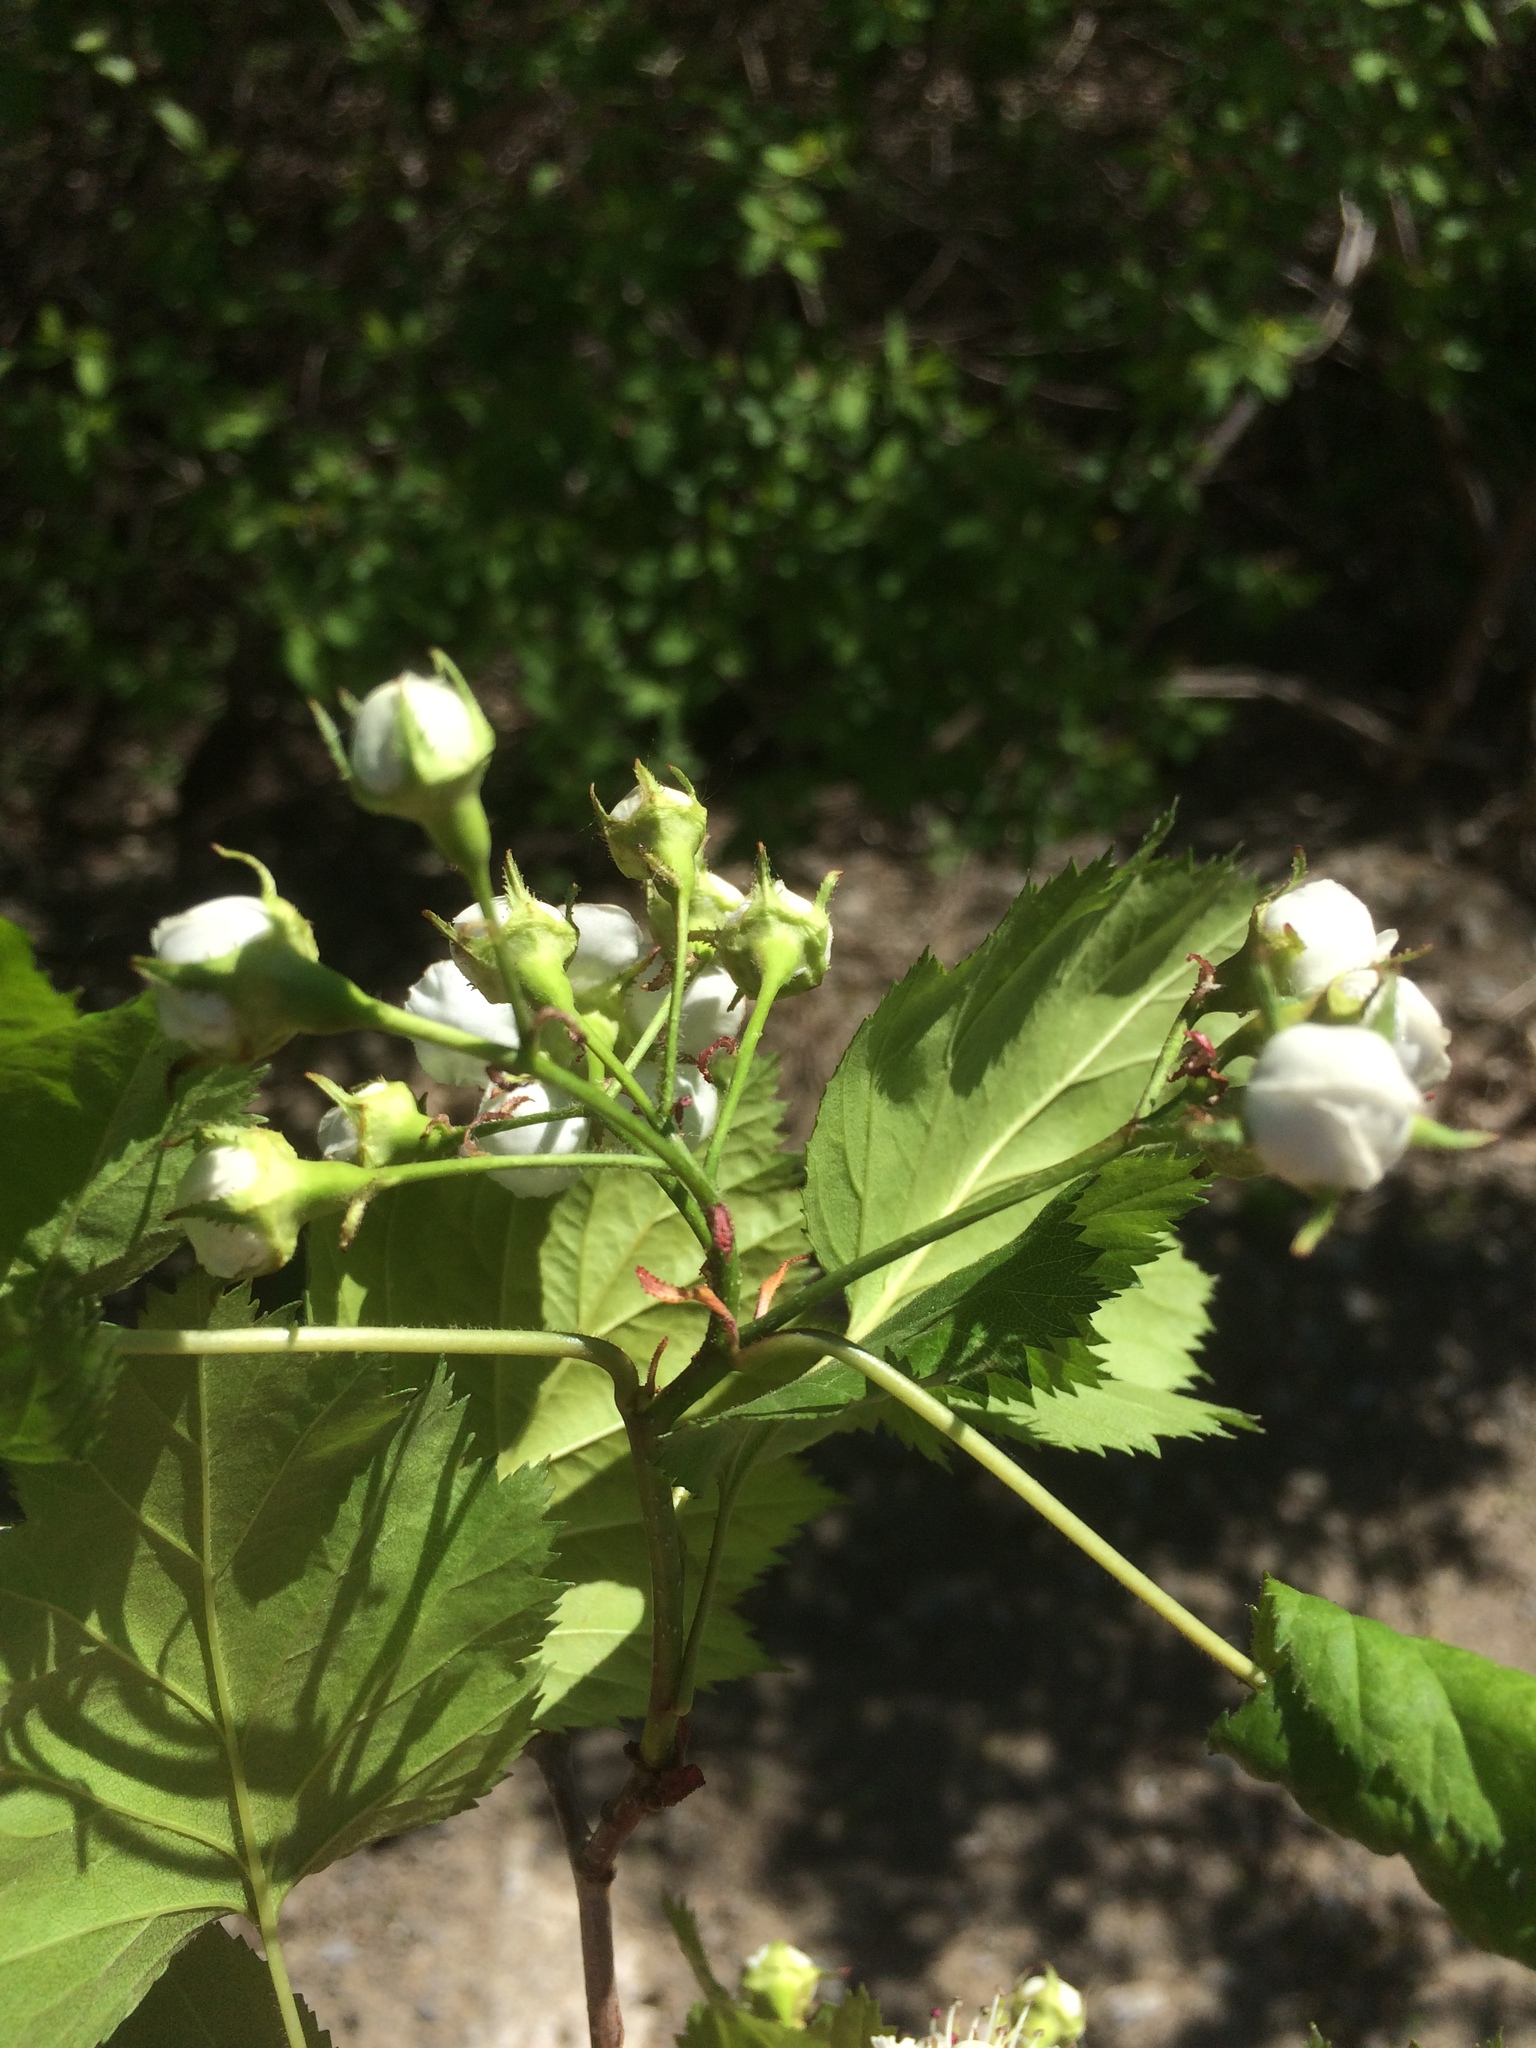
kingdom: Plantae
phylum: Tracheophyta
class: Magnoliopsida
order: Rosales
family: Rosaceae
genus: Crataegus
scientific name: Crataegus coccinioides
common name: Large-flowered cockspurthorn
